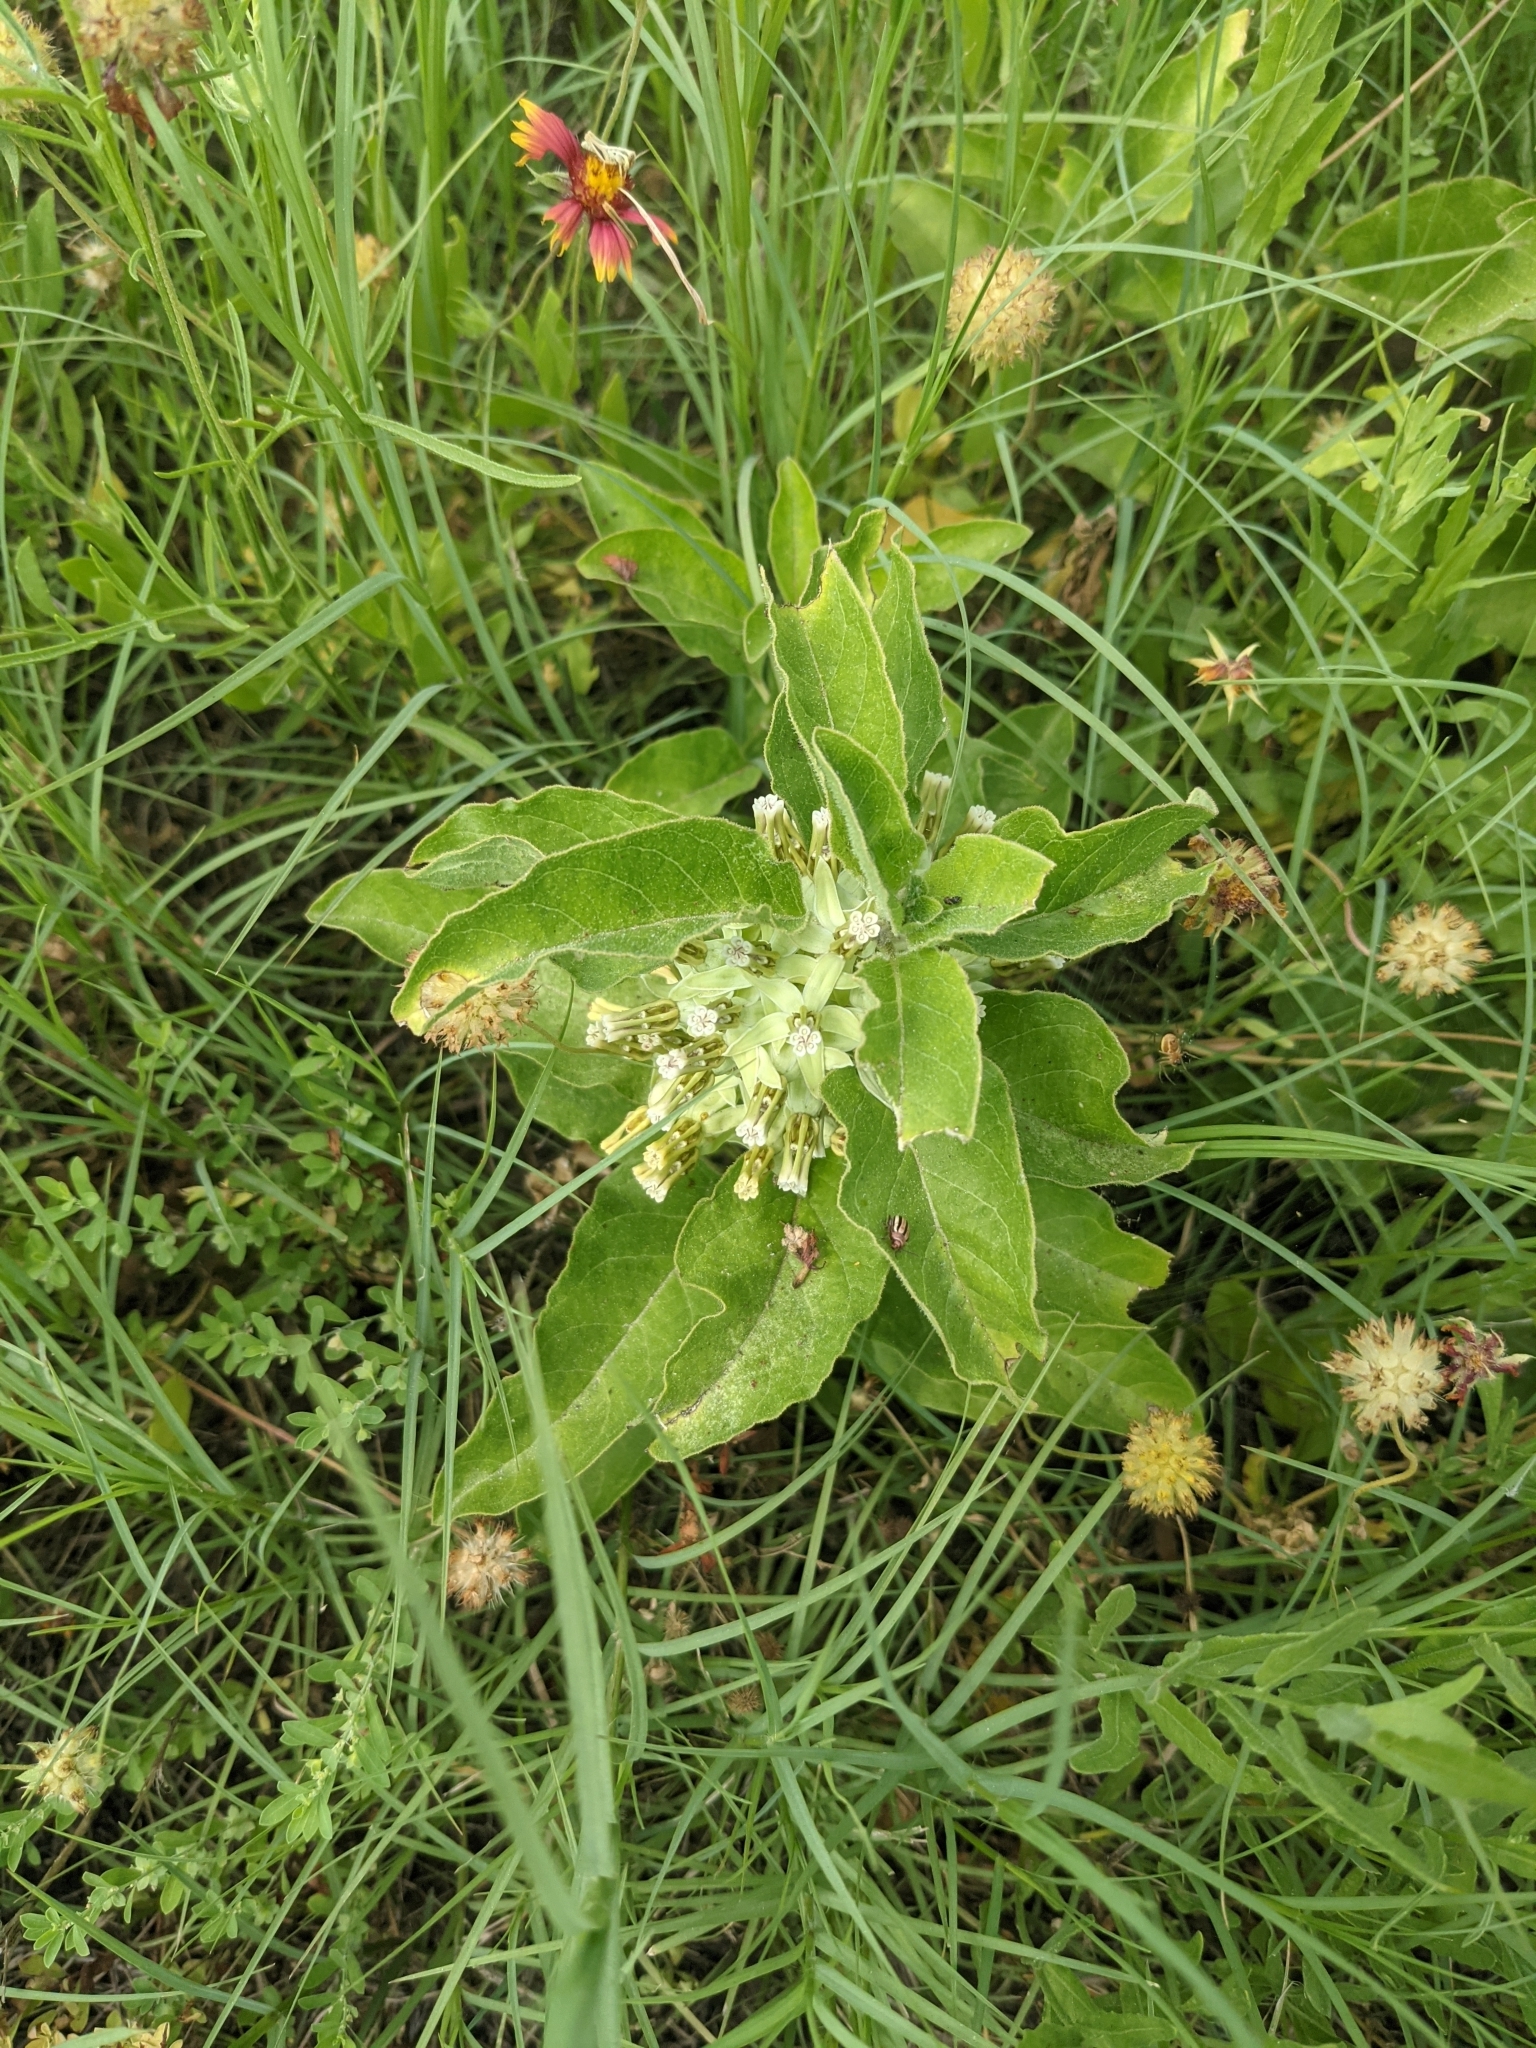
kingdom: Plantae
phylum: Tracheophyta
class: Magnoliopsida
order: Gentianales
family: Apocynaceae
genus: Asclepias
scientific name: Asclepias oenotheroides
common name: Zizotes milkweed
